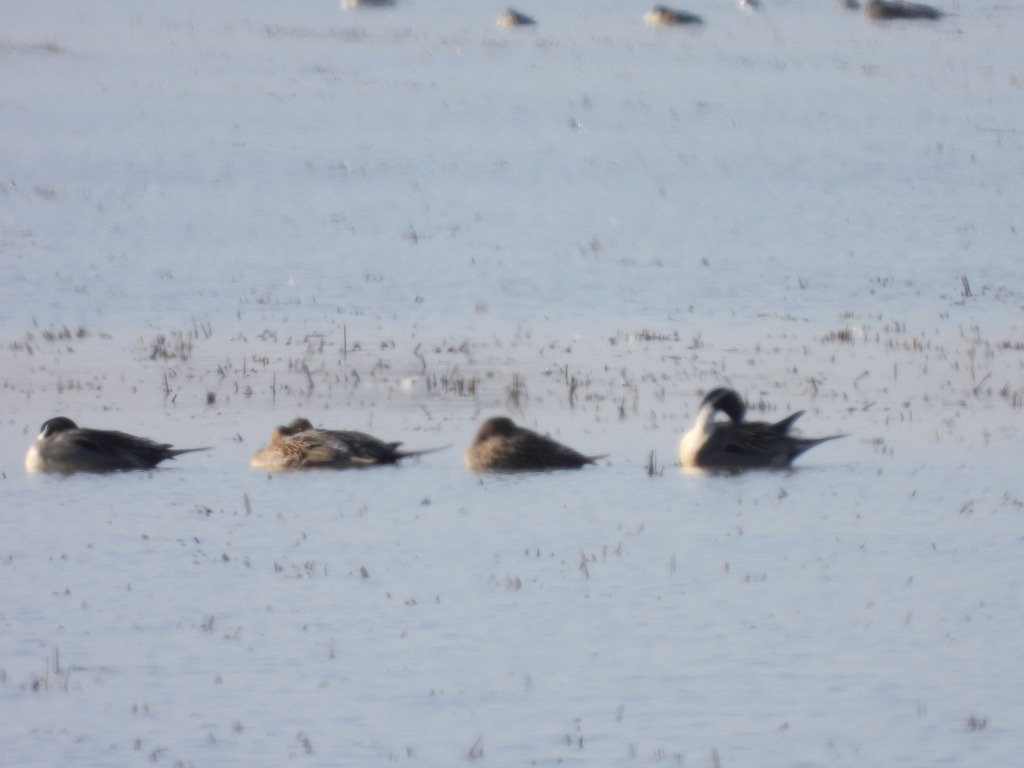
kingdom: Animalia
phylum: Chordata
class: Aves
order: Anseriformes
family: Anatidae
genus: Anas
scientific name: Anas acuta
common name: Northern pintail
